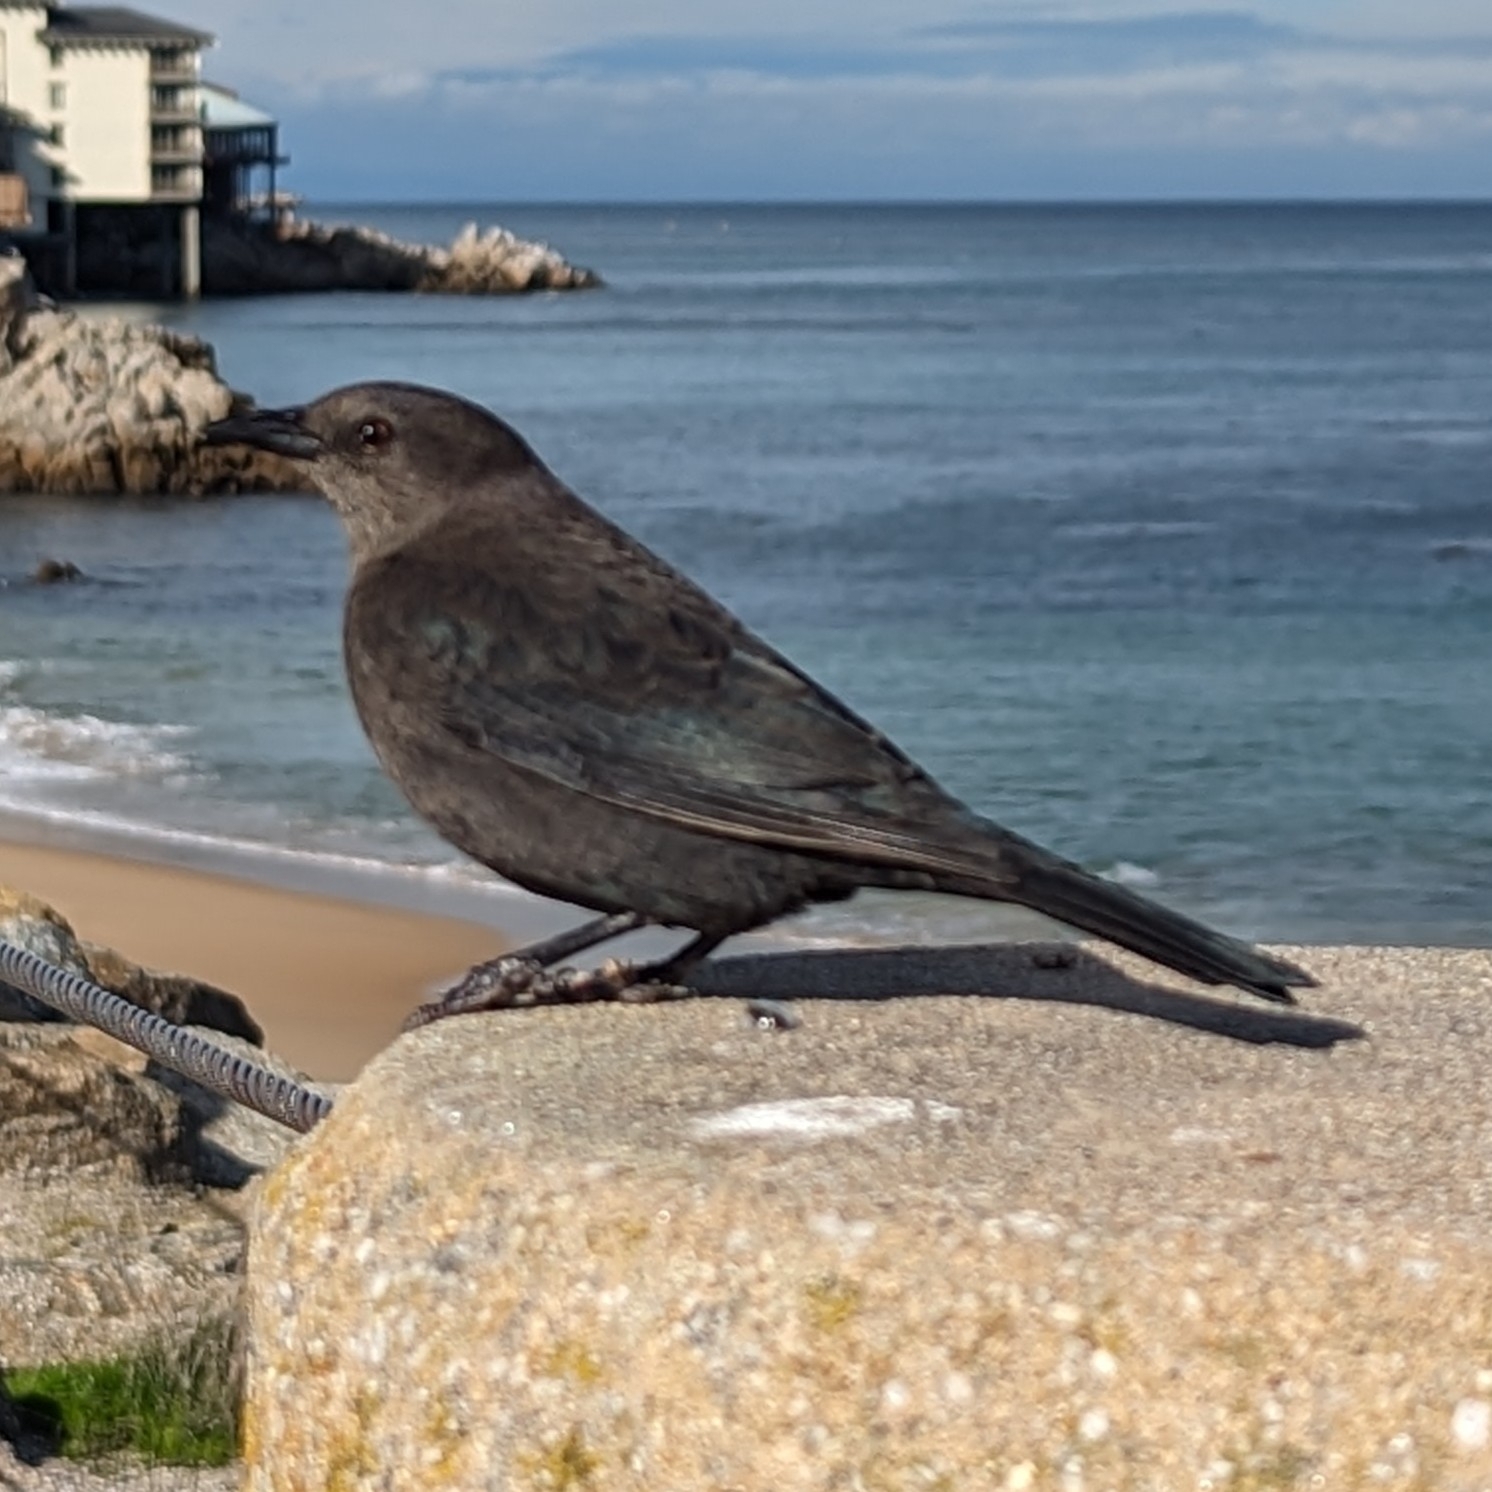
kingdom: Animalia
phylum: Chordata
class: Aves
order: Passeriformes
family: Icteridae
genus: Euphagus
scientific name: Euphagus cyanocephalus
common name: Brewer's blackbird
